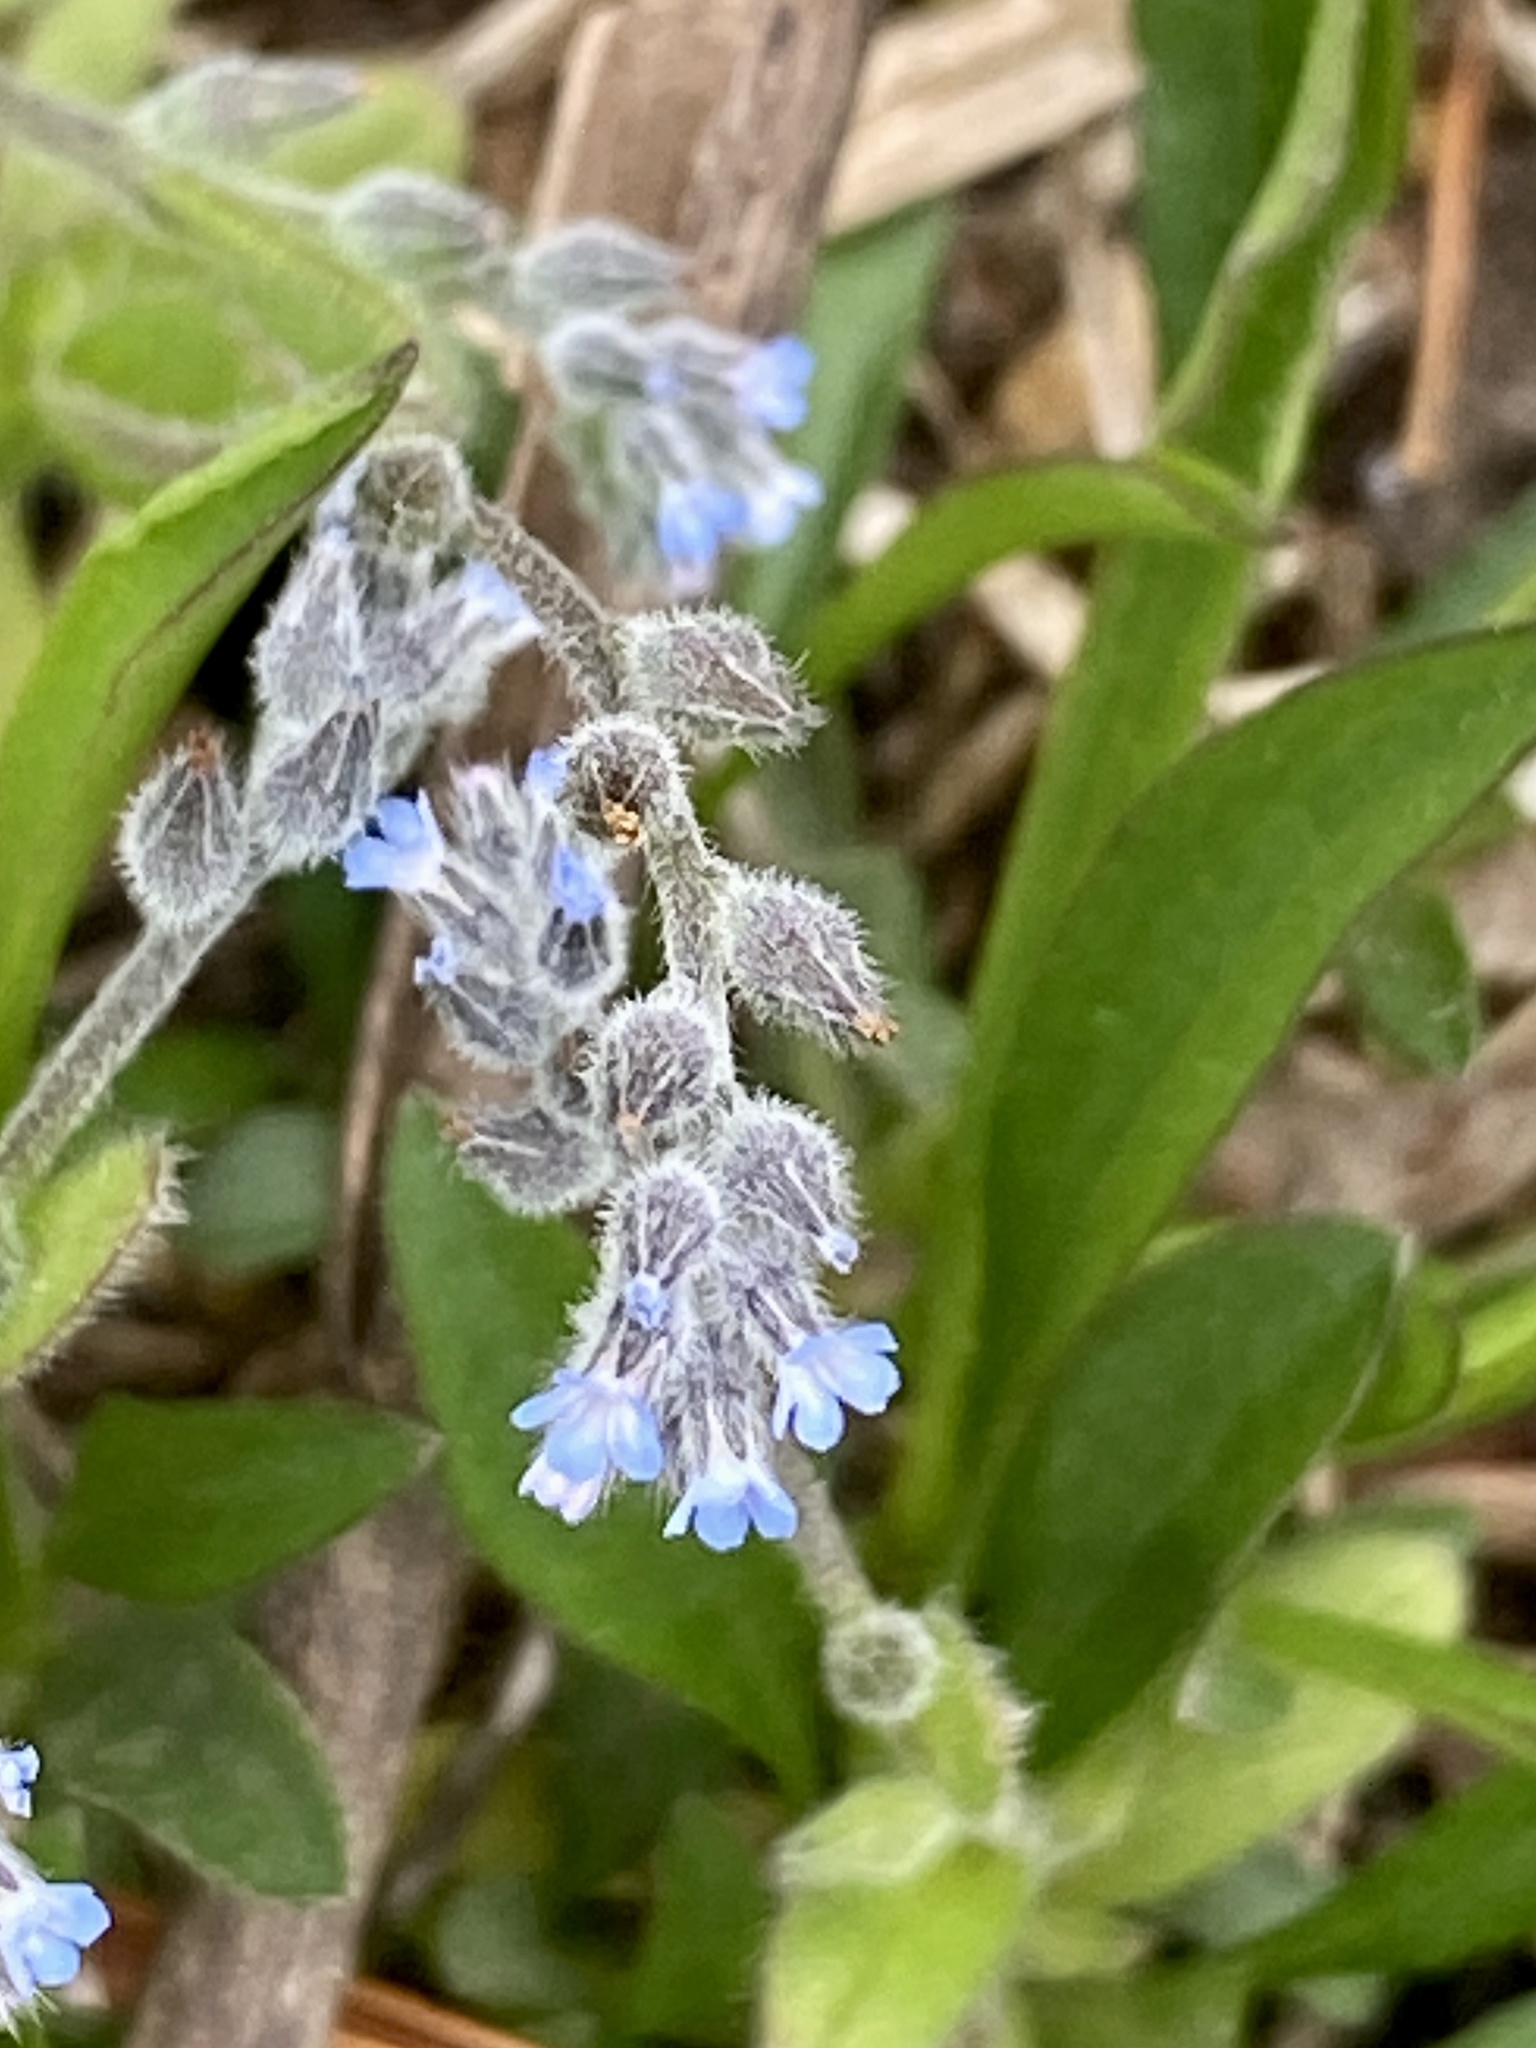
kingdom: Plantae
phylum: Tracheophyta
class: Magnoliopsida
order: Boraginales
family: Boraginaceae
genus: Myosotis
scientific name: Myosotis stricta
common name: Strict forget-me-not
